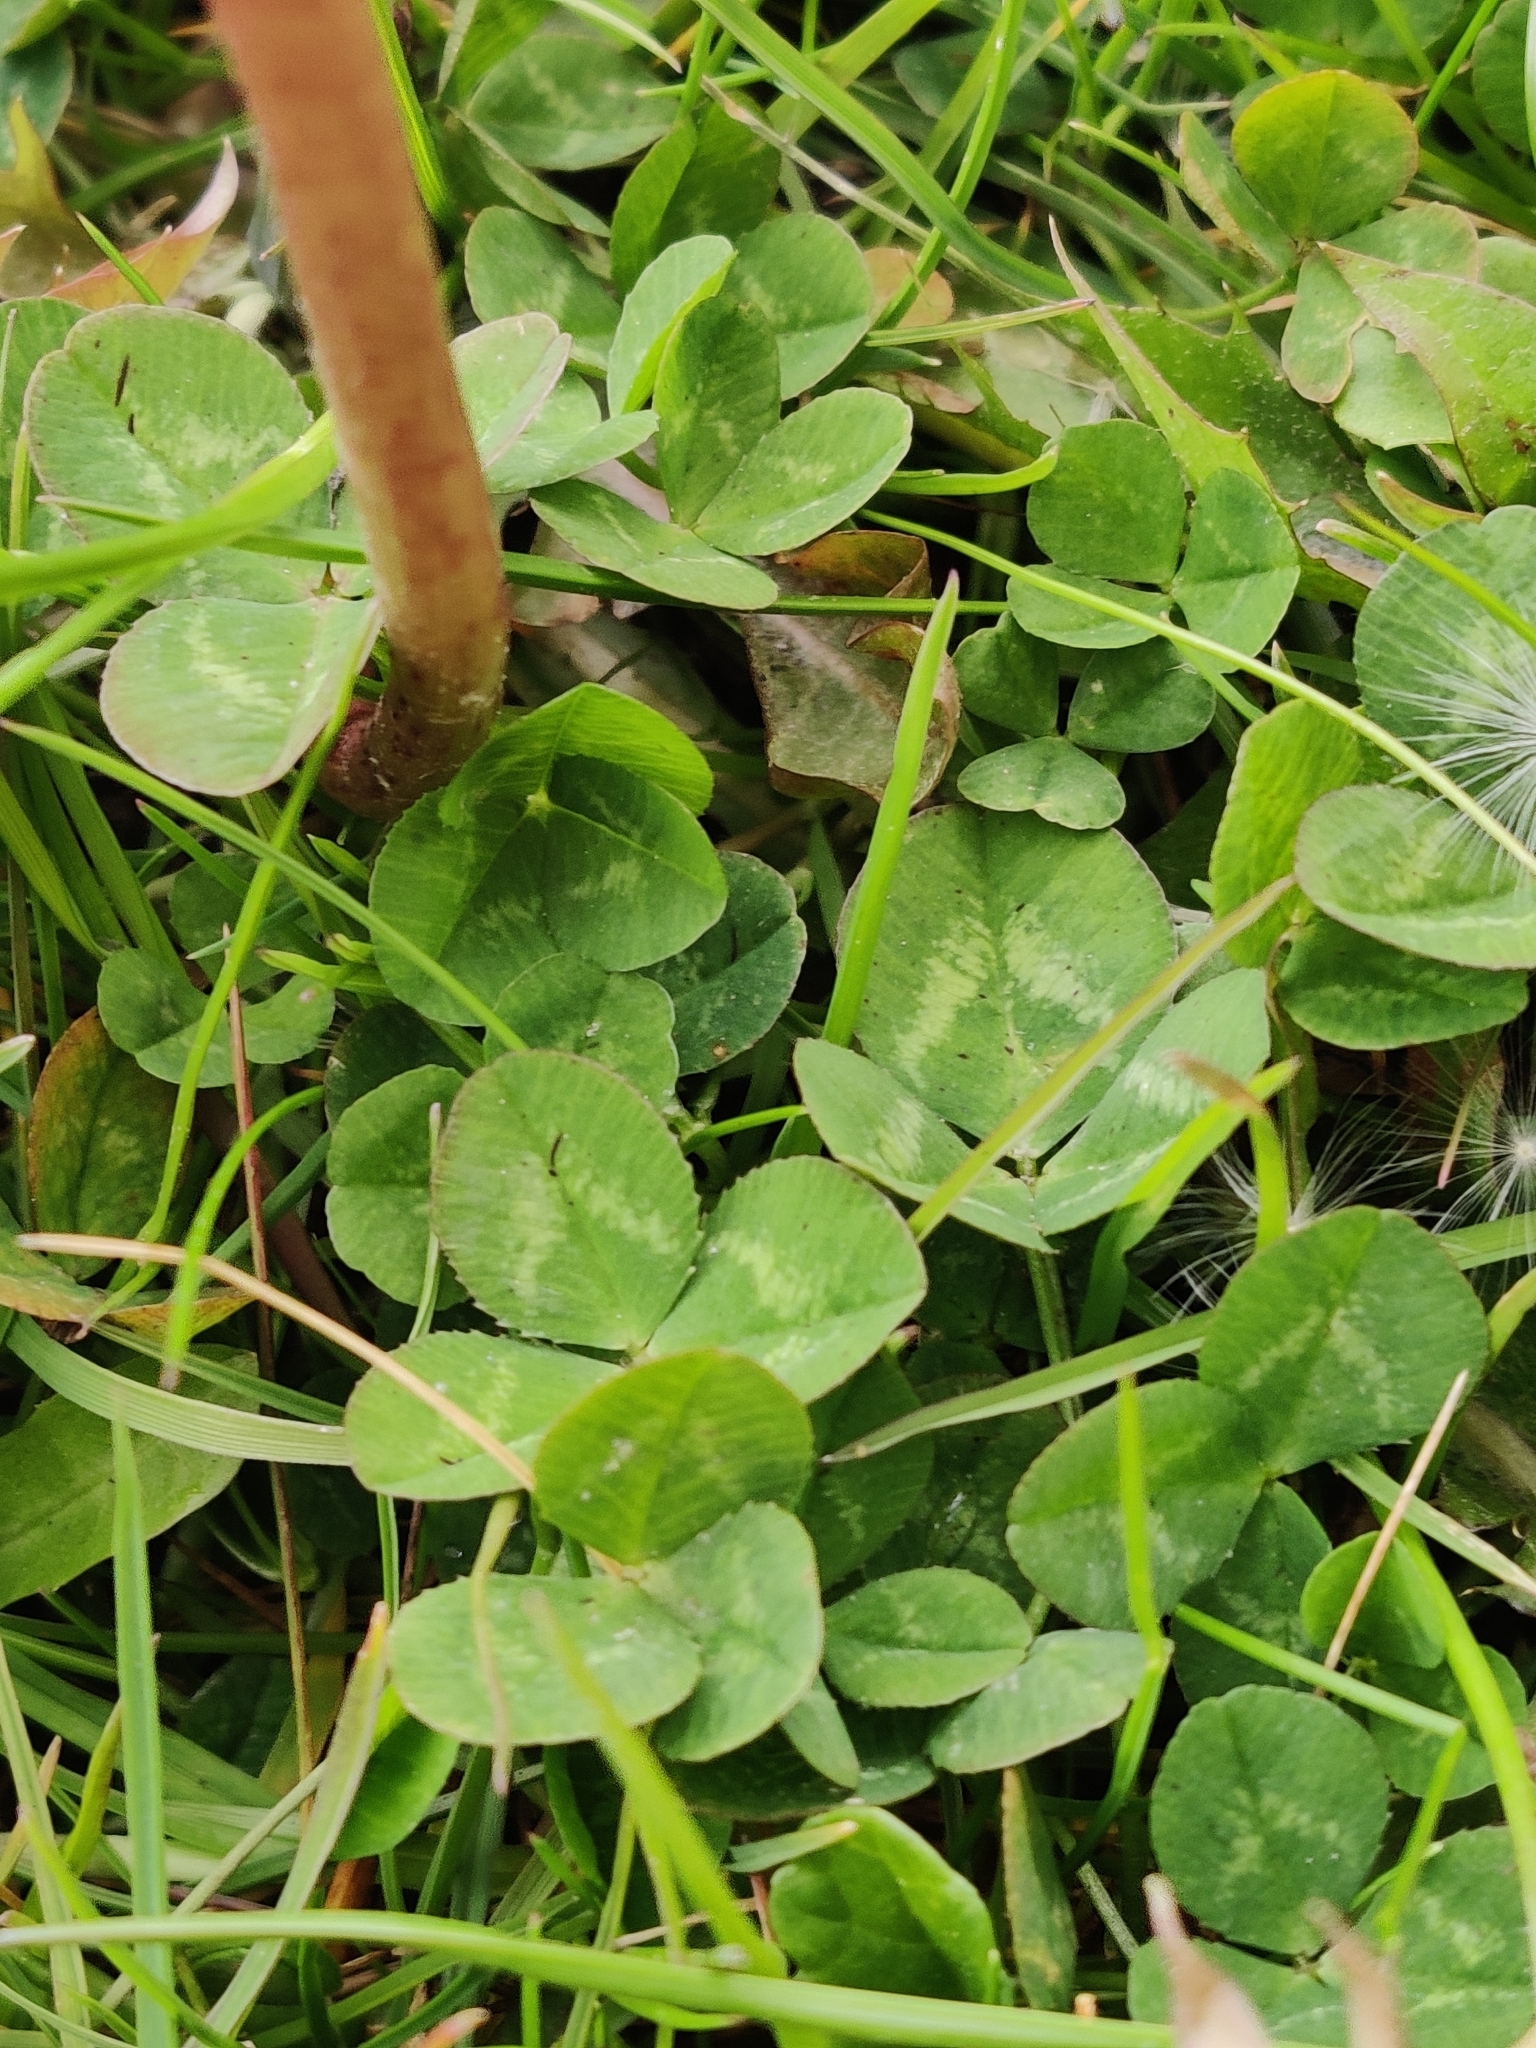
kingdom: Plantae
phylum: Tracheophyta
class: Magnoliopsida
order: Fabales
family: Fabaceae
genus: Trifolium
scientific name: Trifolium repens
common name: White clover
